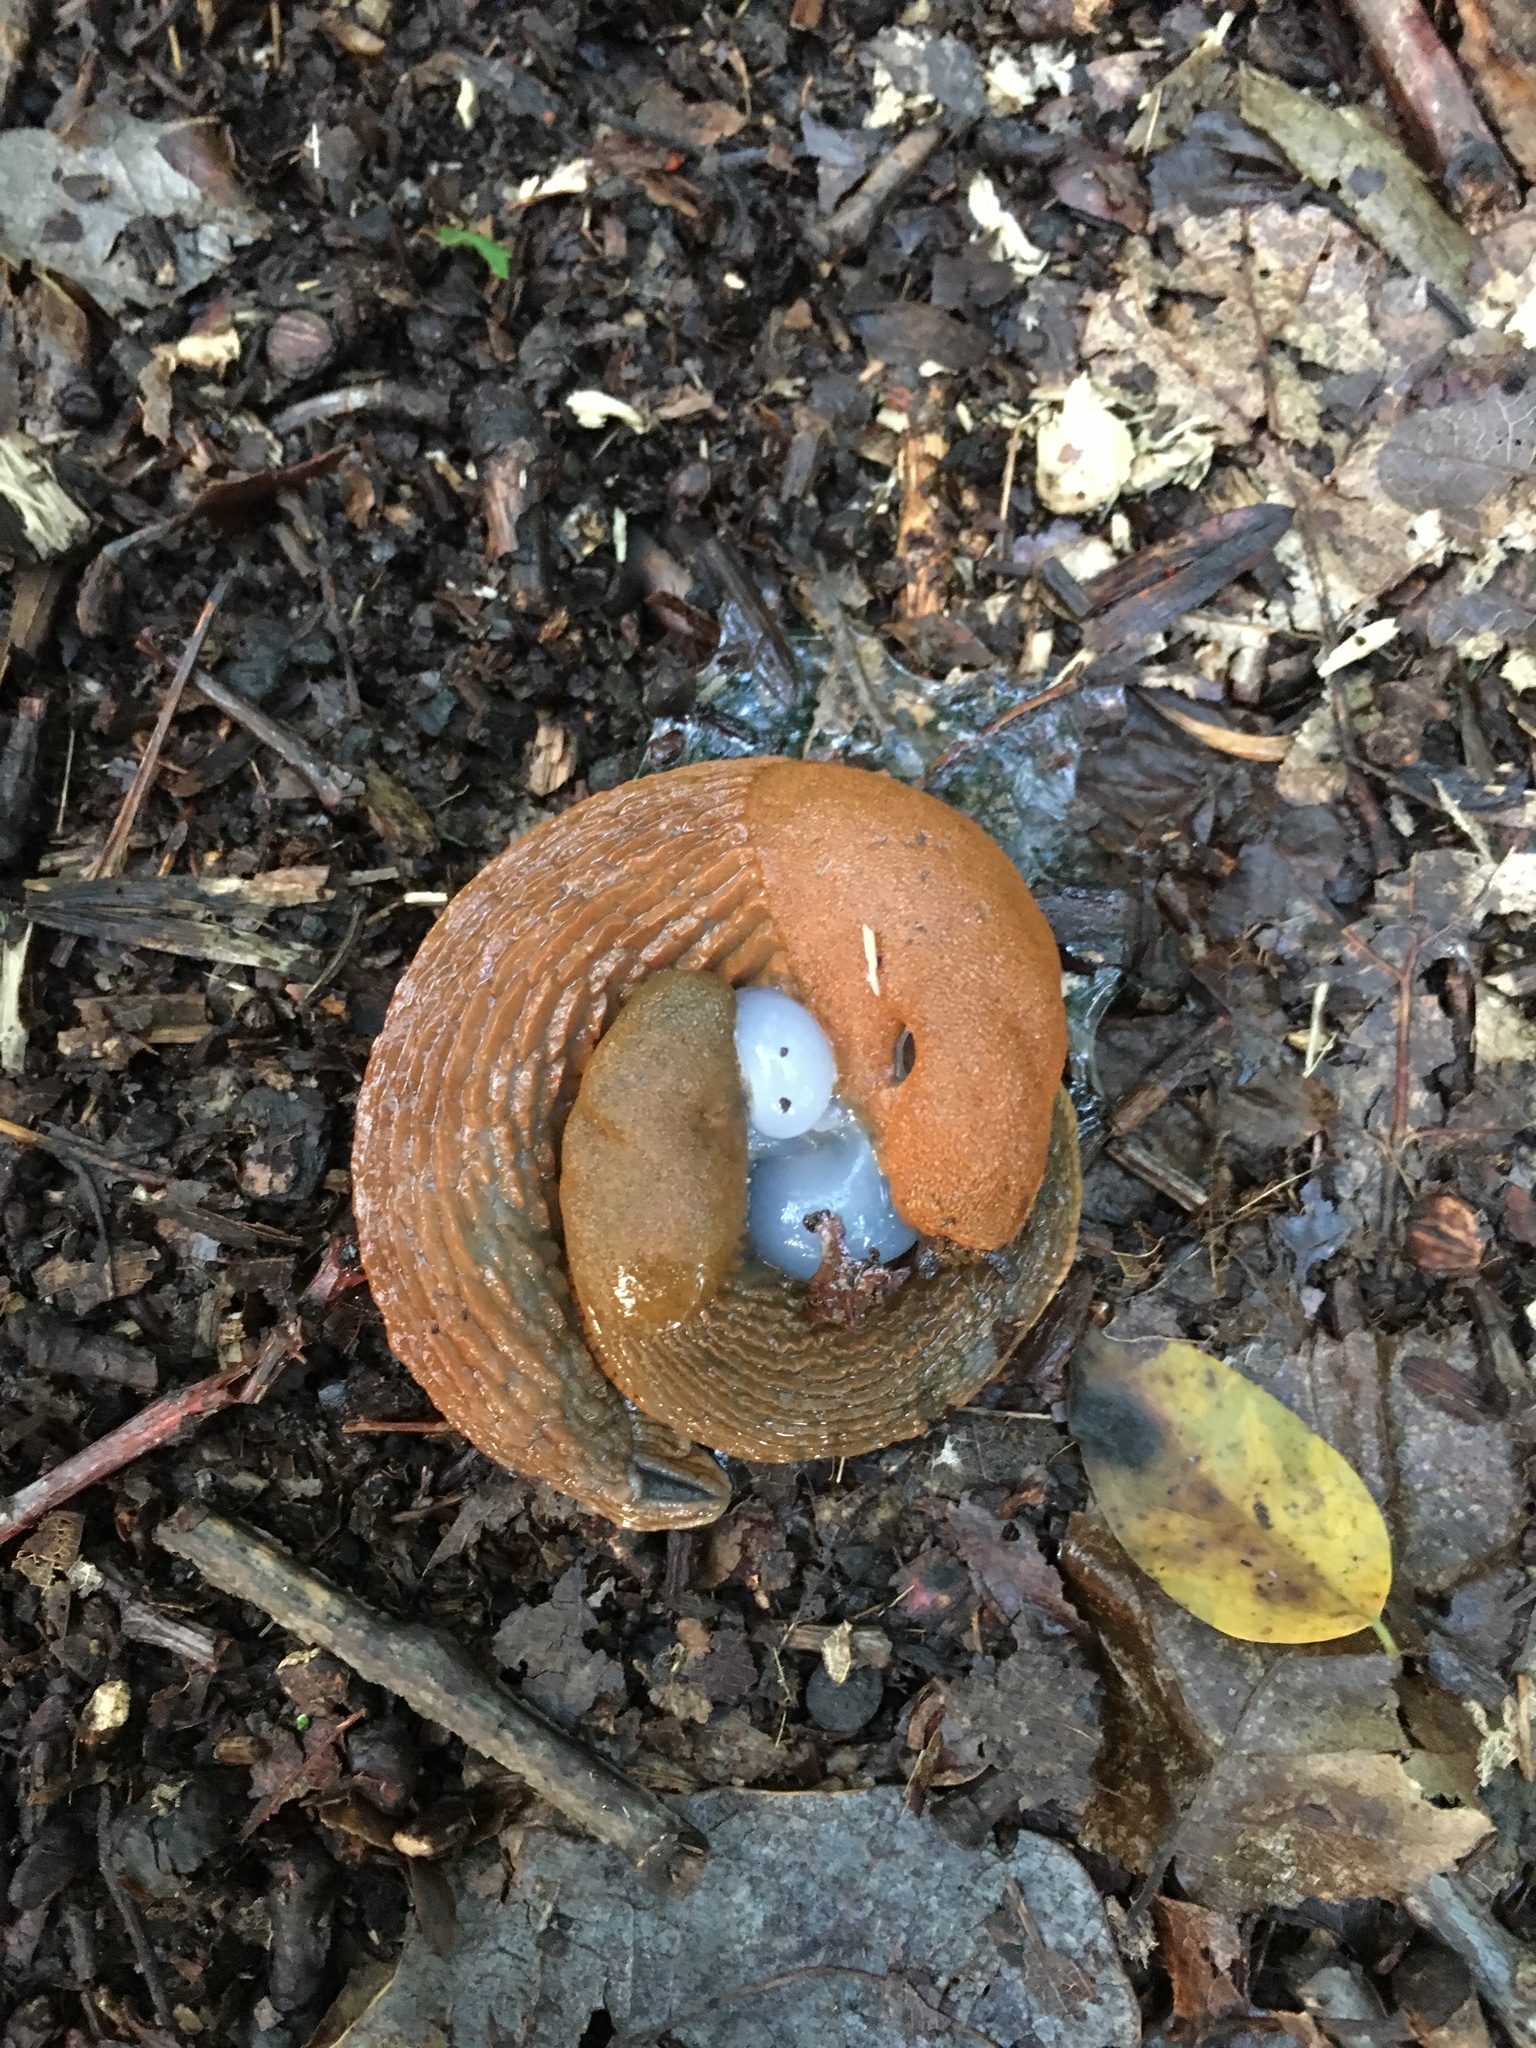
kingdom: Animalia
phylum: Mollusca
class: Gastropoda
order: Stylommatophora
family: Arionidae
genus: Arion
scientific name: Arion vulgaris
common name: Lusitanian slug
